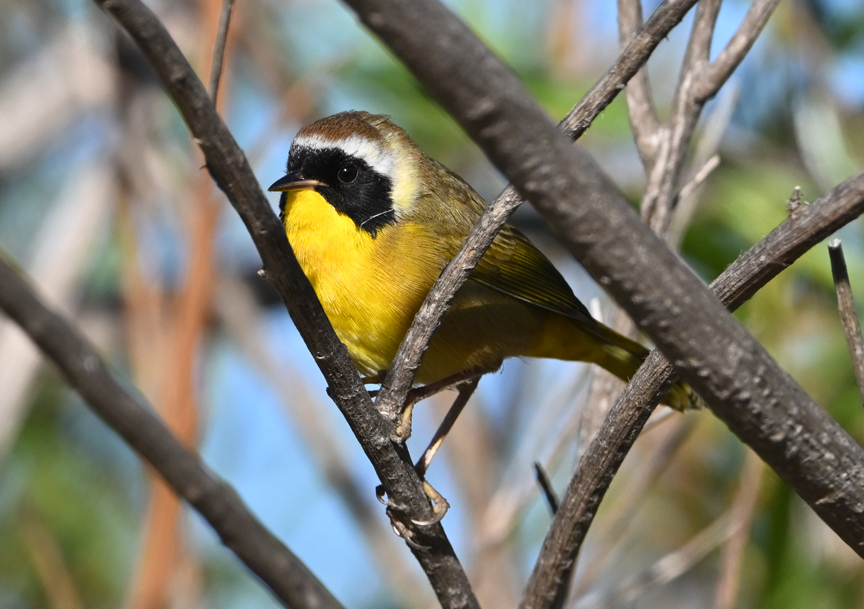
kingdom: Animalia
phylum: Chordata
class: Aves
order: Passeriformes
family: Parulidae
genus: Geothlypis
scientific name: Geothlypis trichas
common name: Common yellowthroat
